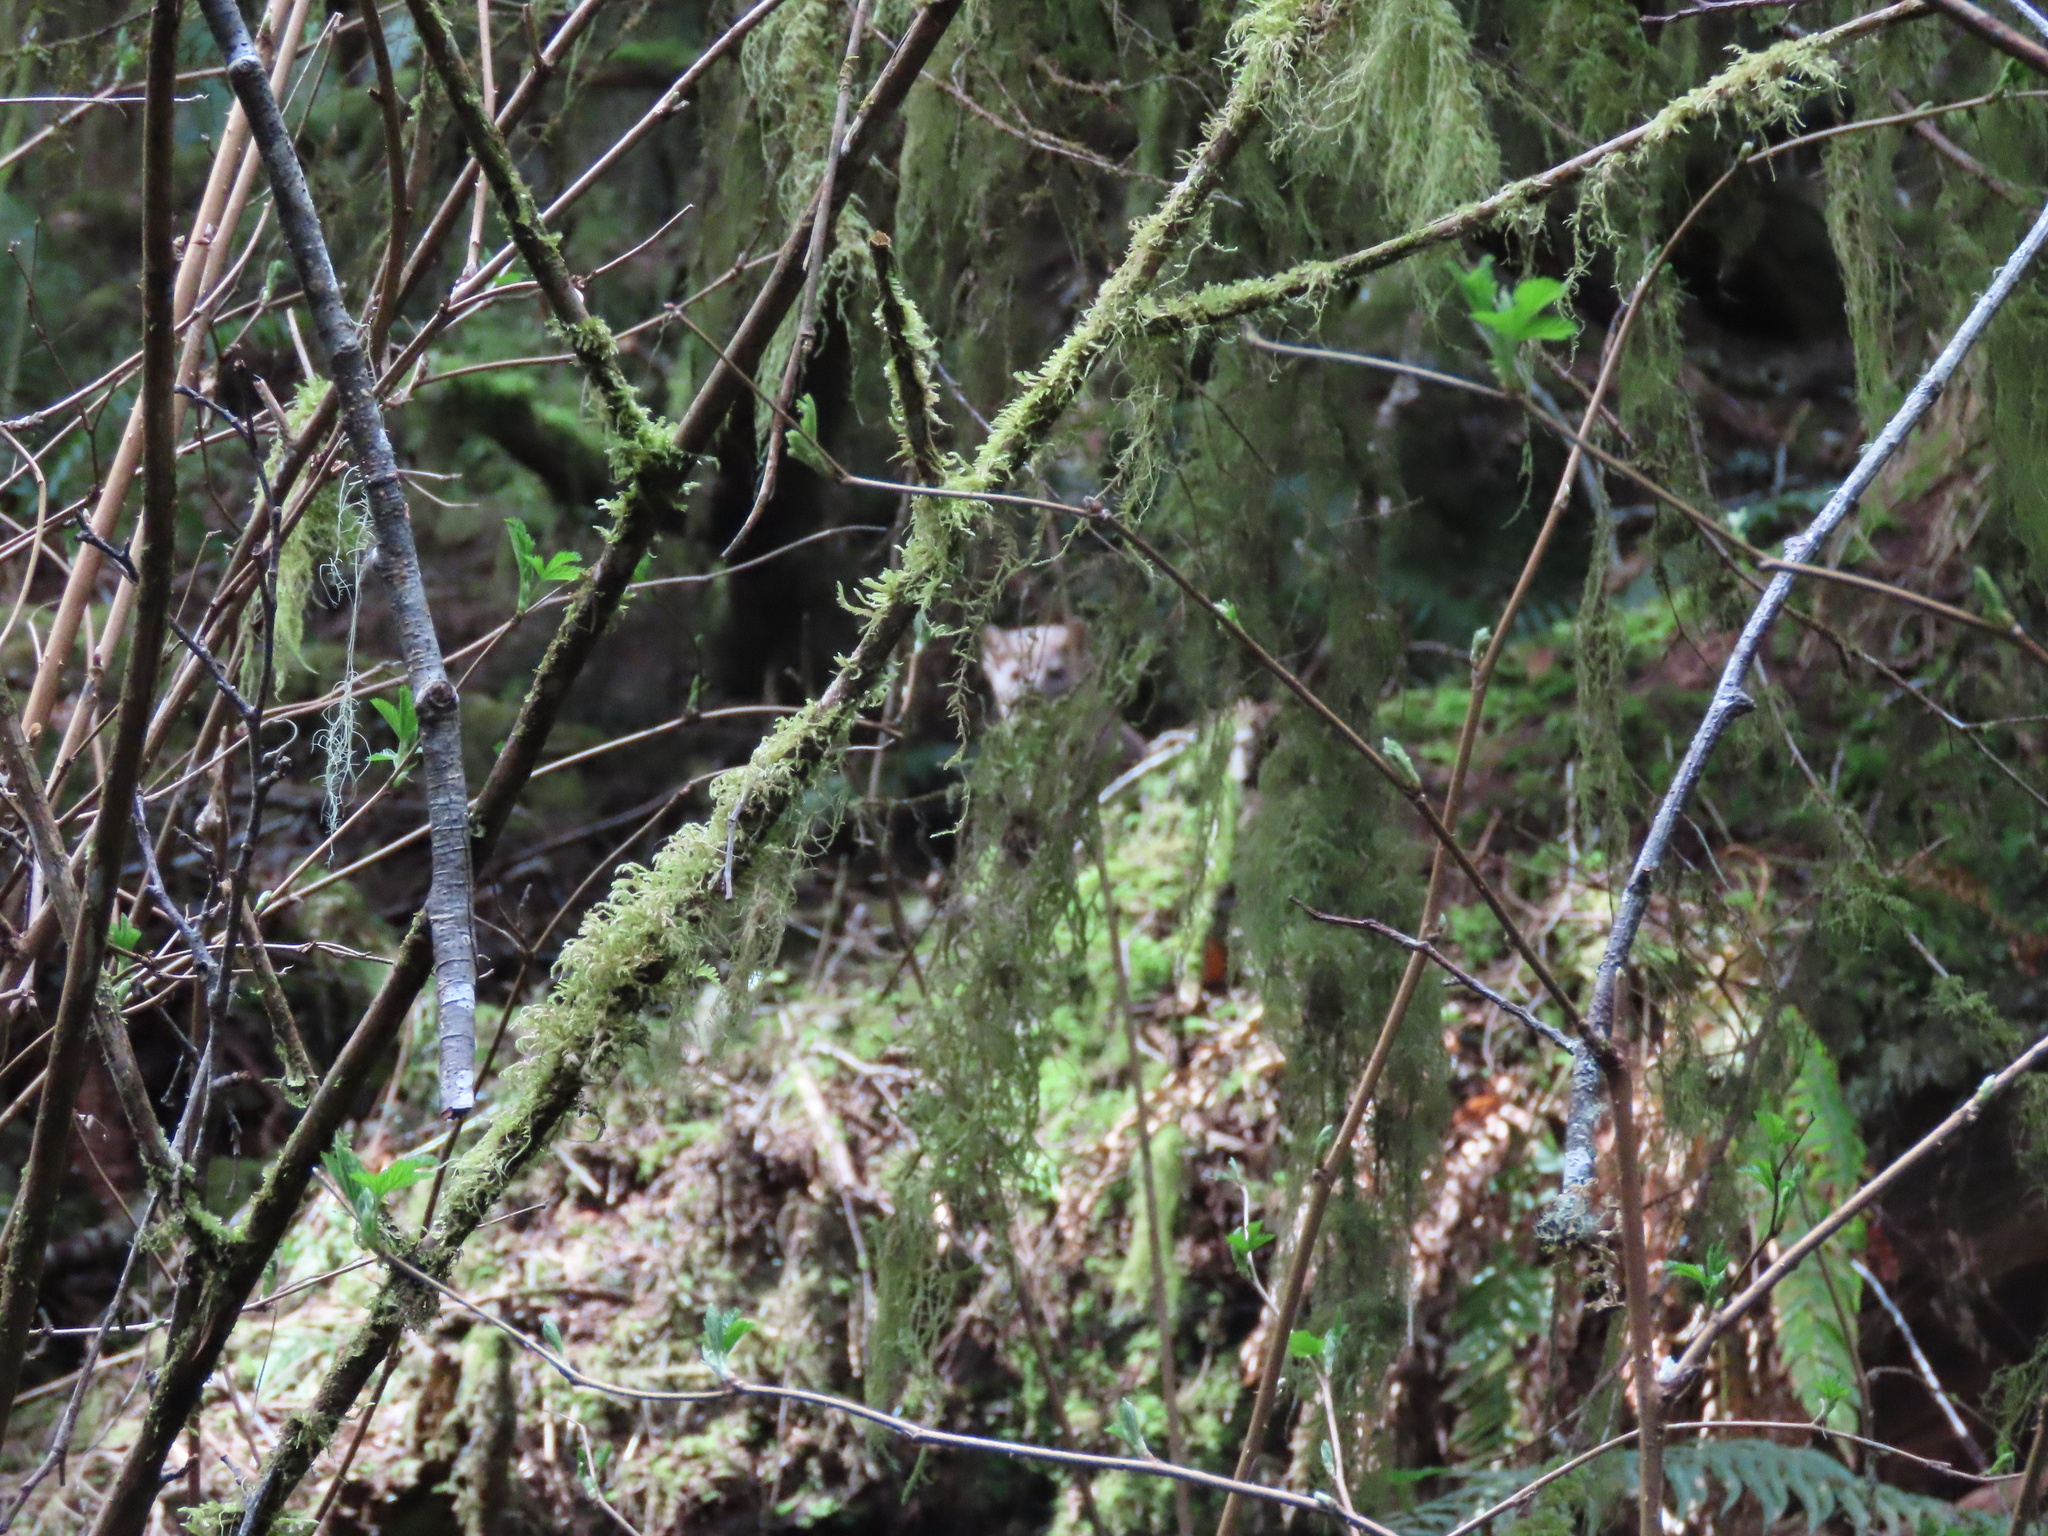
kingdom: Animalia
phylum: Chordata
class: Mammalia
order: Carnivora
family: Mustelidae
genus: Martes
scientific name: Martes caurina
